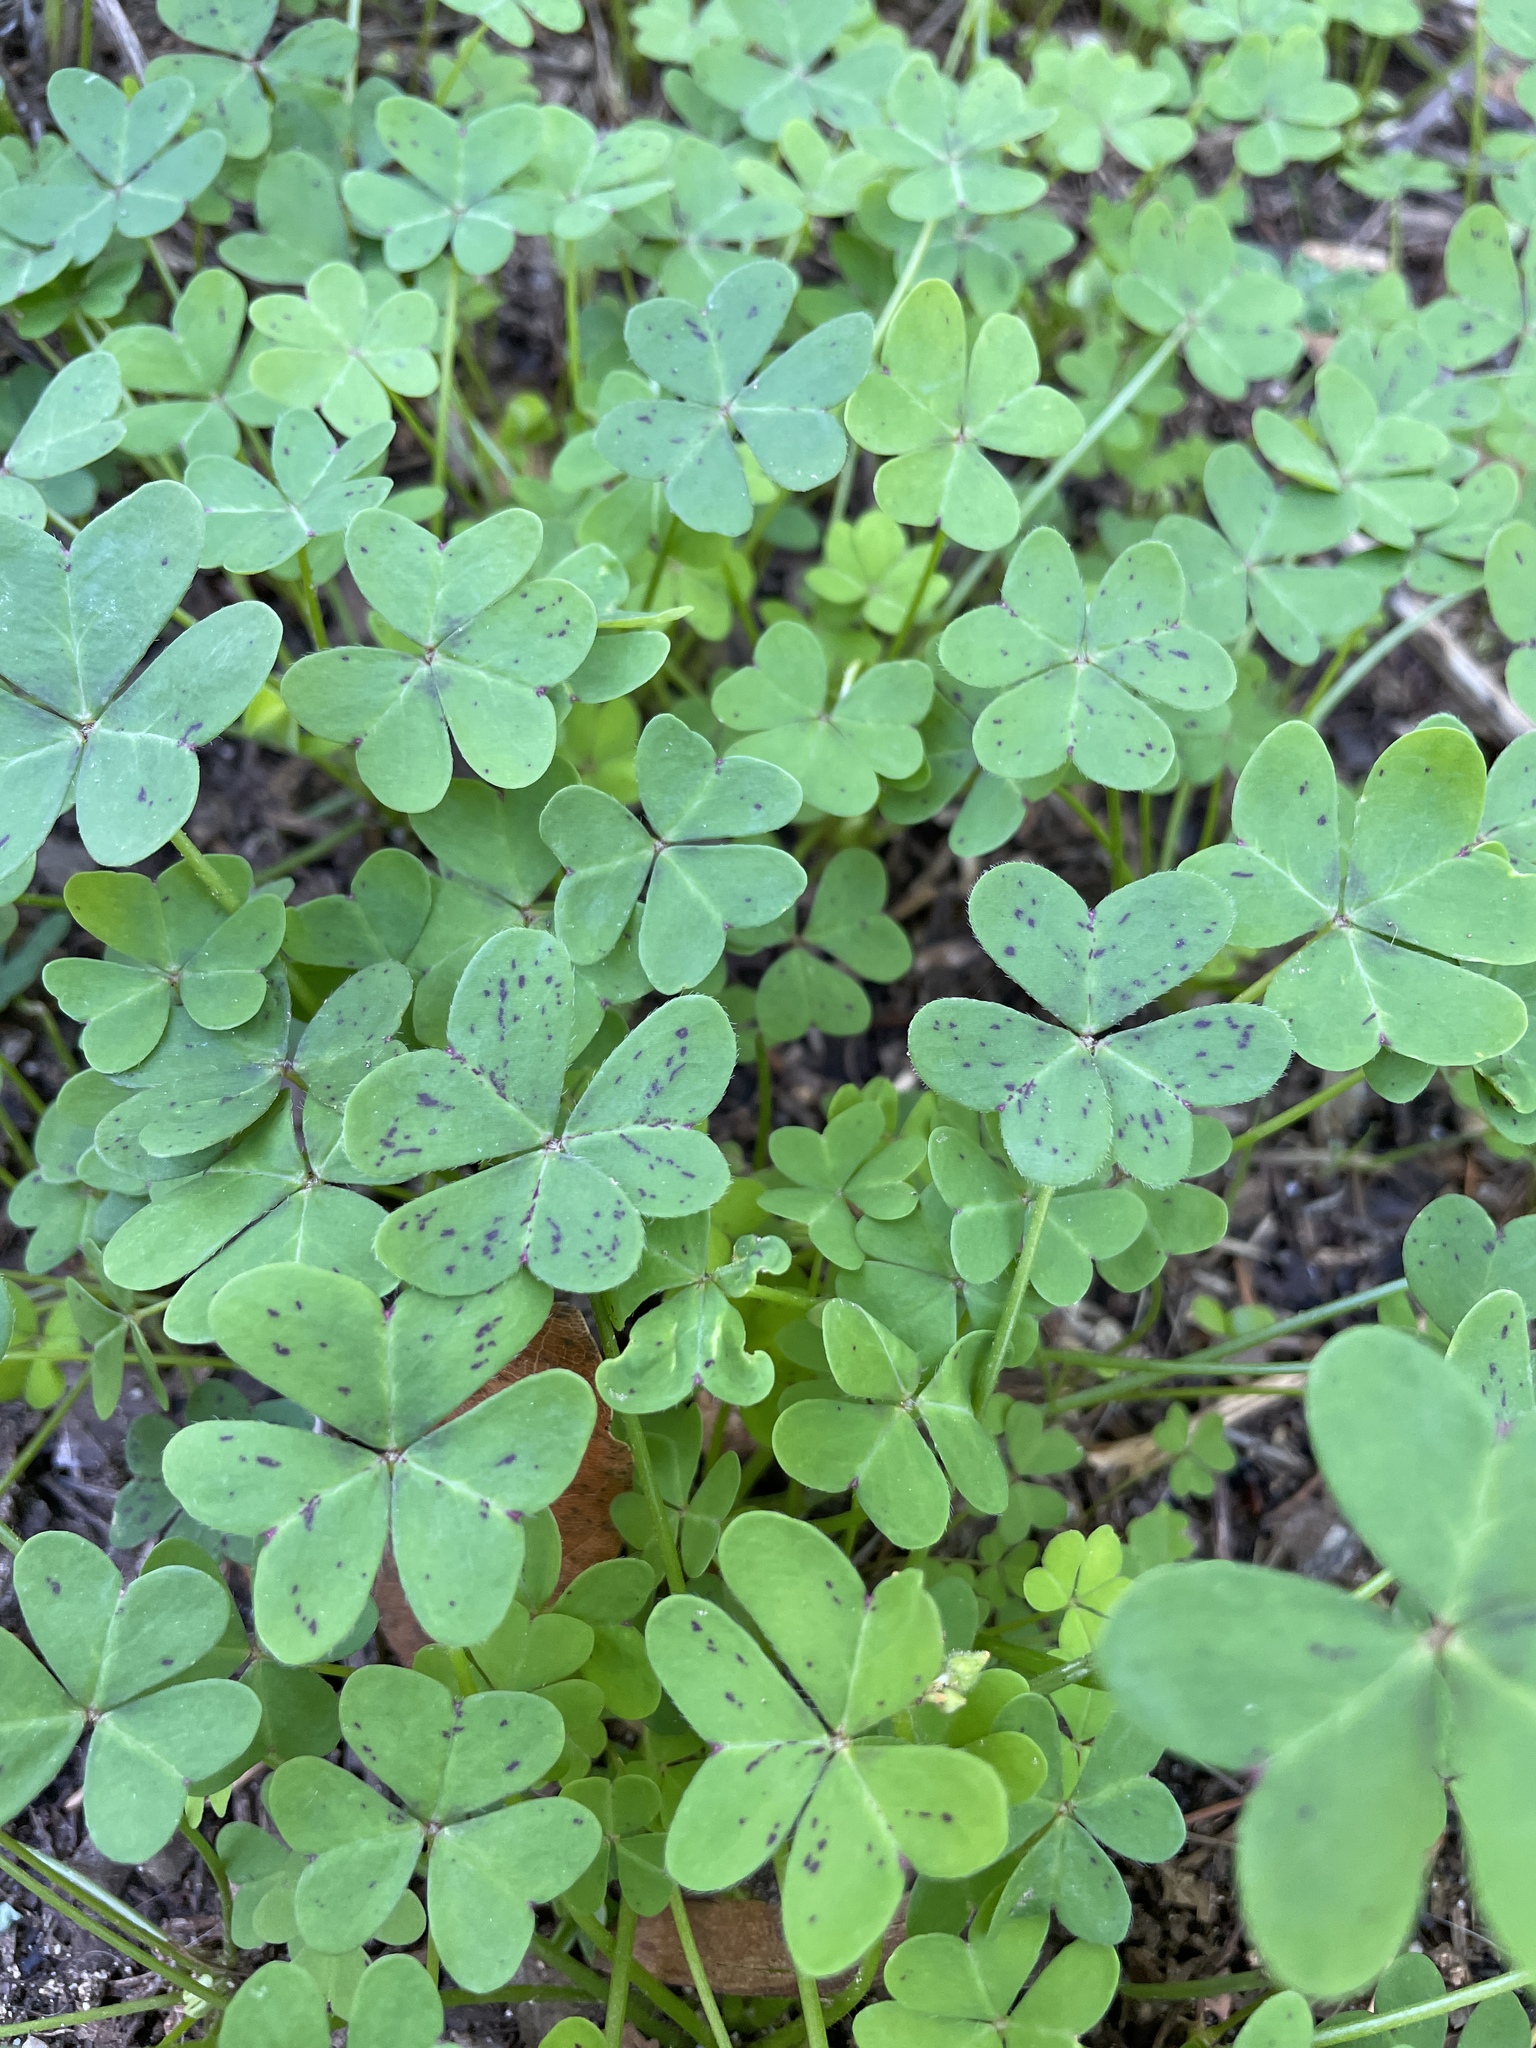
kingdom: Plantae
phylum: Tracheophyta
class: Magnoliopsida
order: Oxalidales
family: Oxalidaceae
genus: Oxalis
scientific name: Oxalis pes-caprae
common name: Bermuda-buttercup
